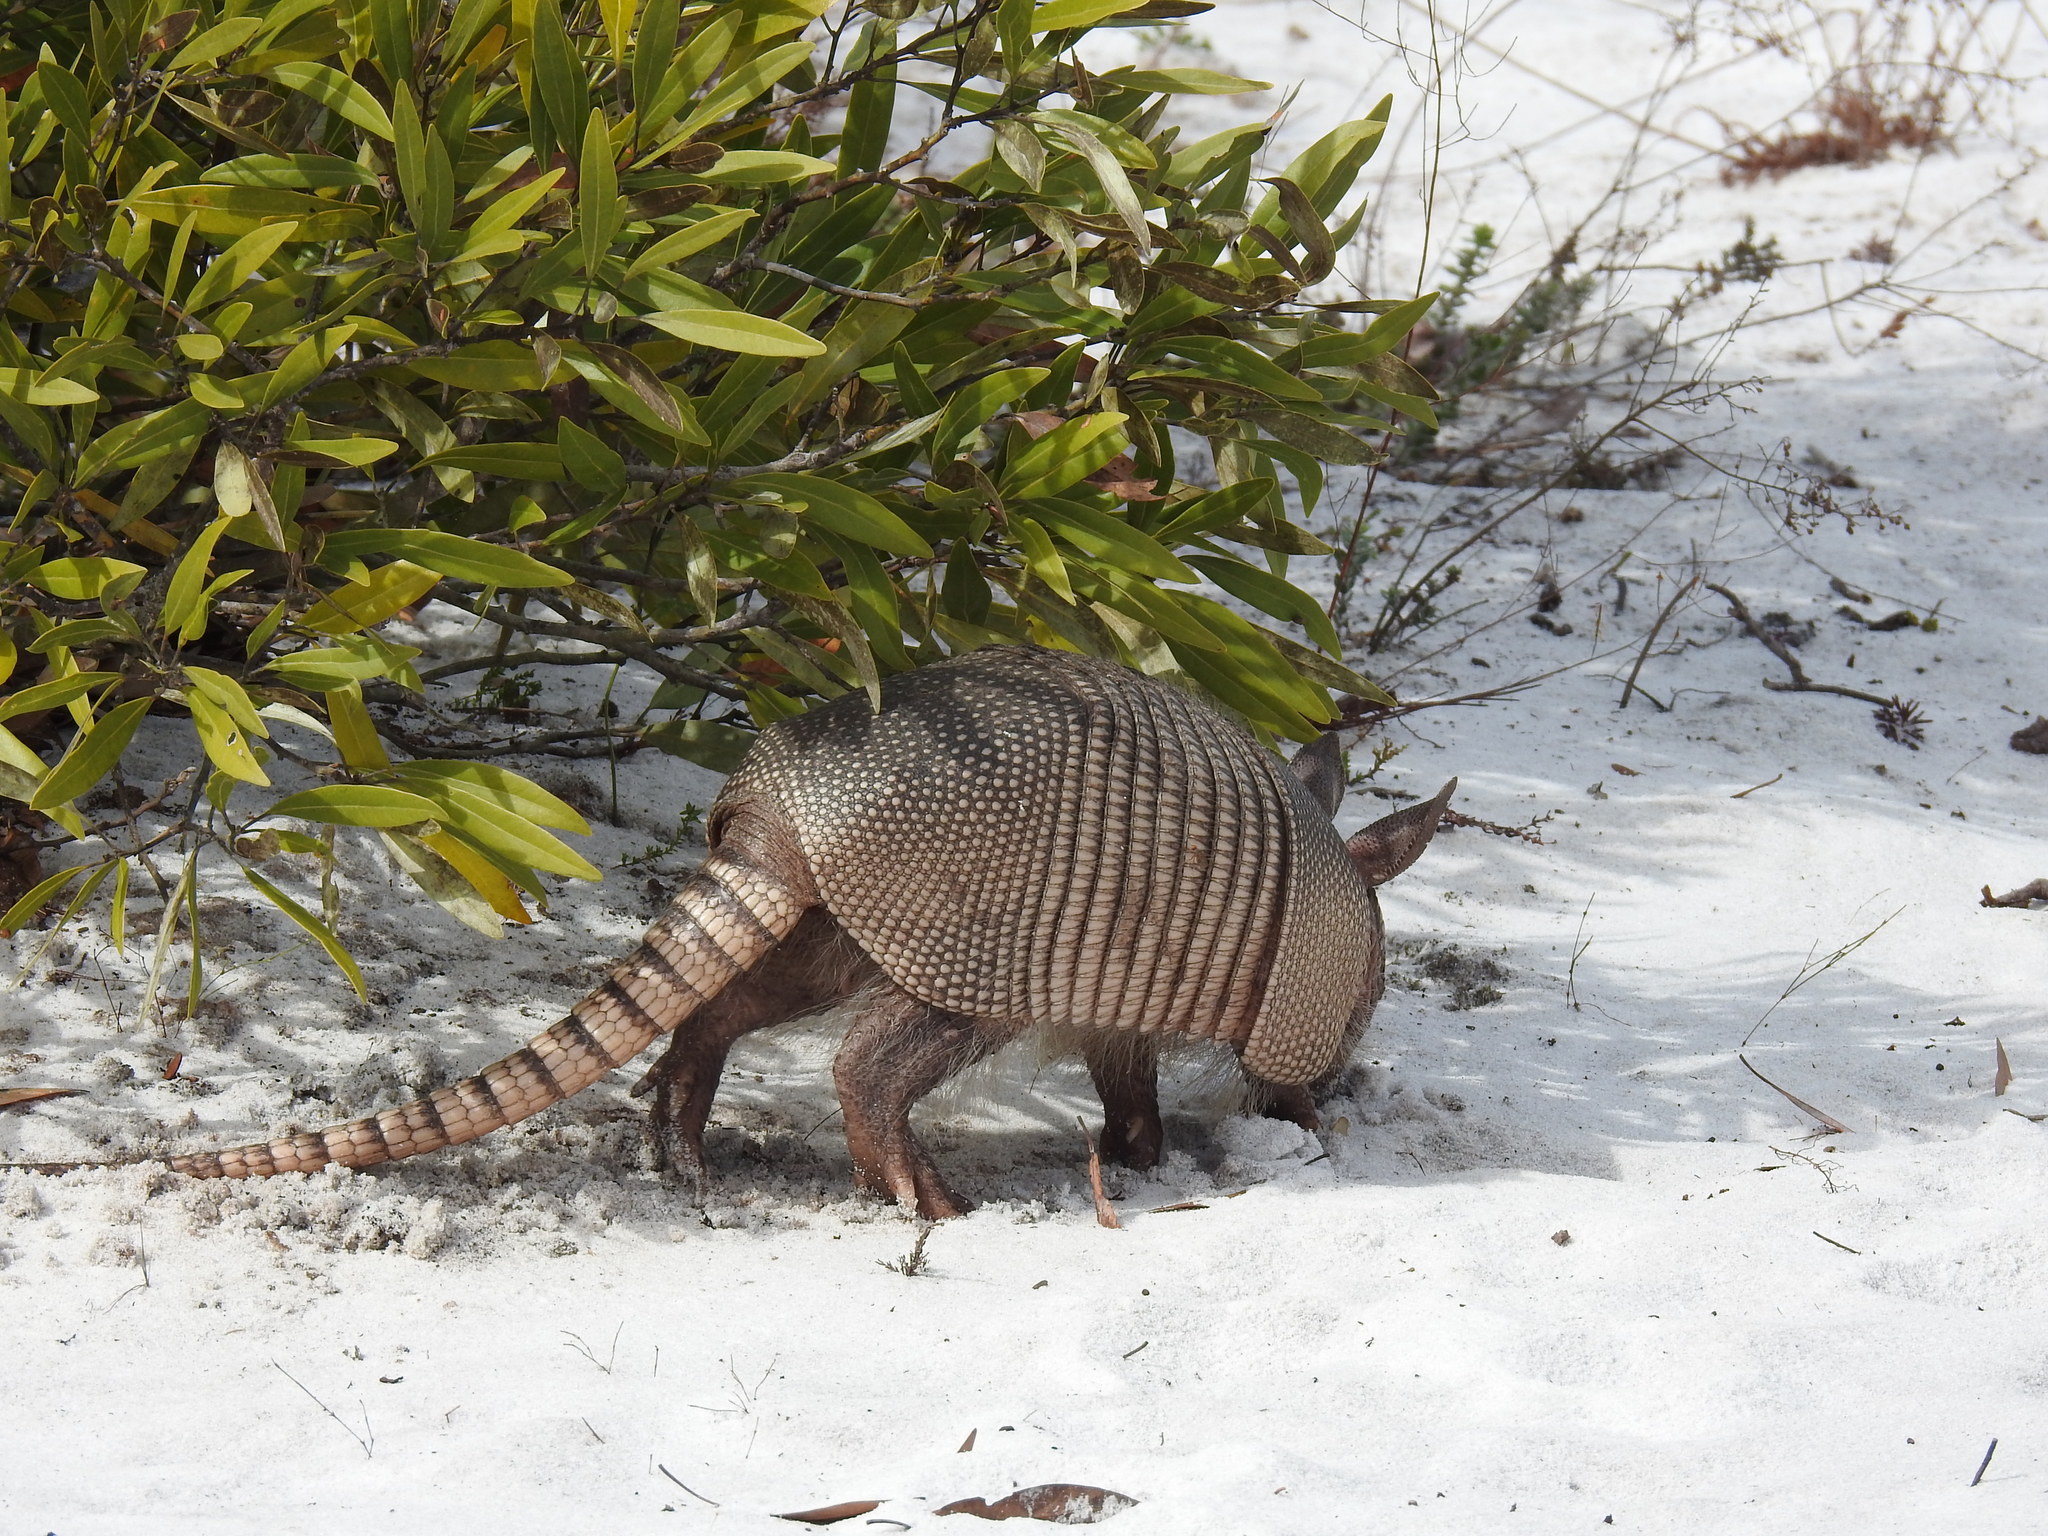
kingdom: Animalia
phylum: Chordata
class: Mammalia
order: Cingulata
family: Dasypodidae
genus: Dasypus
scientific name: Dasypus novemcinctus
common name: Nine-banded armadillo
